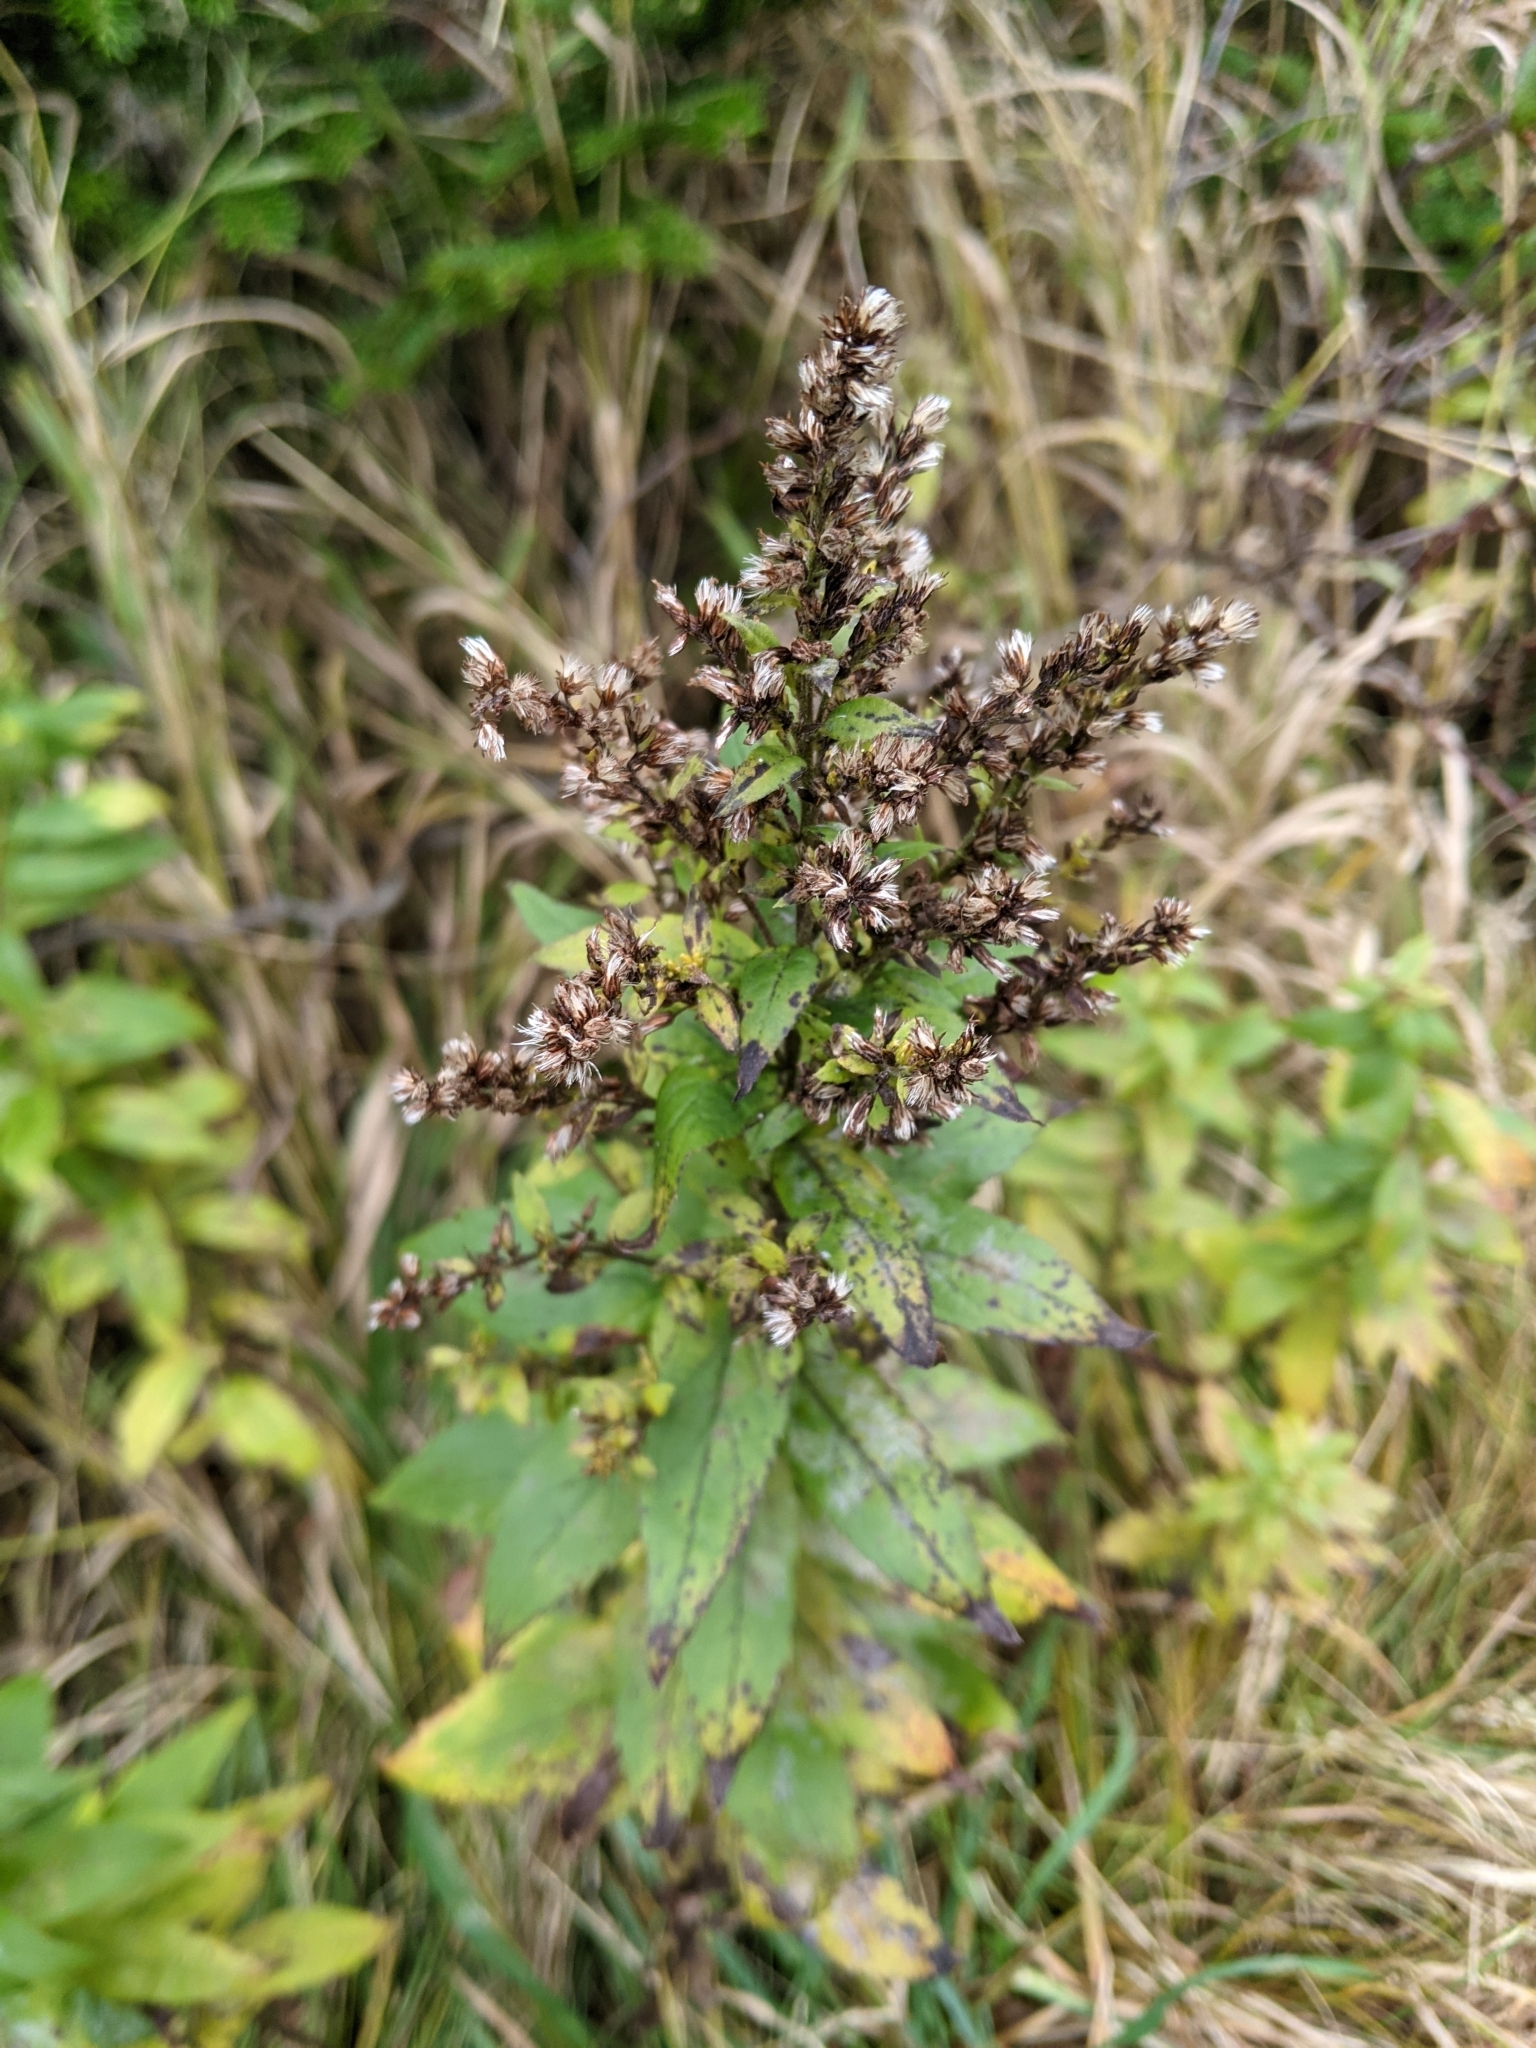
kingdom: Plantae
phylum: Tracheophyta
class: Magnoliopsida
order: Asterales
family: Asteraceae
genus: Solidago
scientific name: Solidago rugosa
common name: Rough-stemmed goldenrod
